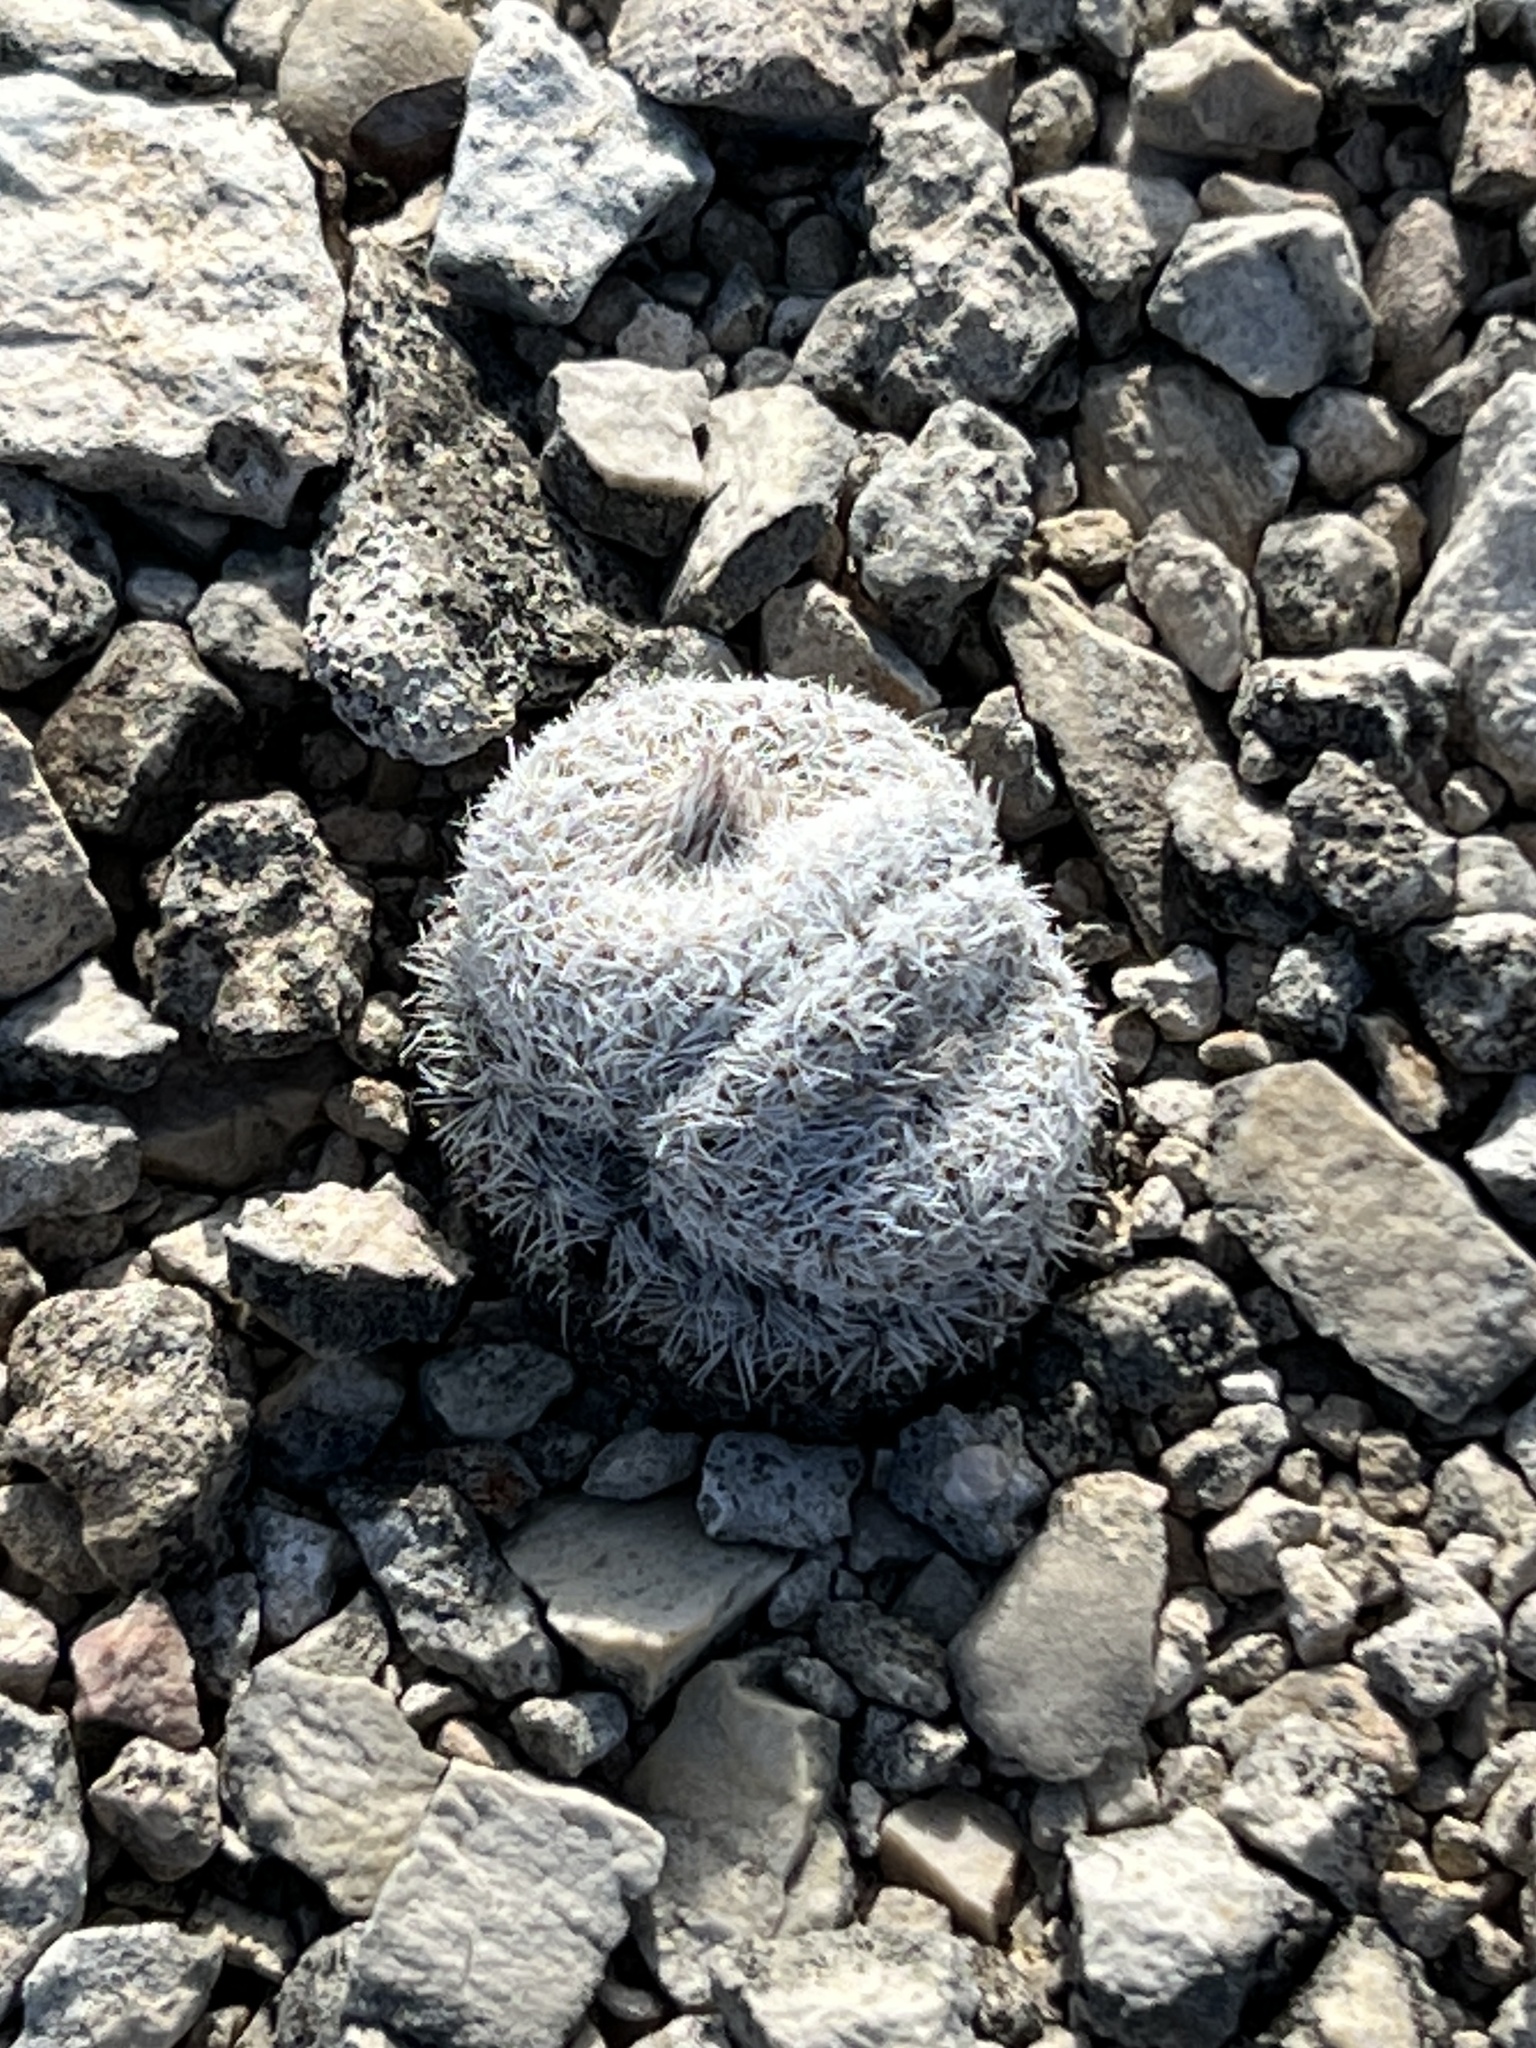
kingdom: Plantae
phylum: Tracheophyta
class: Magnoliopsida
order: Caryophyllales
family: Cactaceae
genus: Epithelantha
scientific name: Epithelantha micromeris
